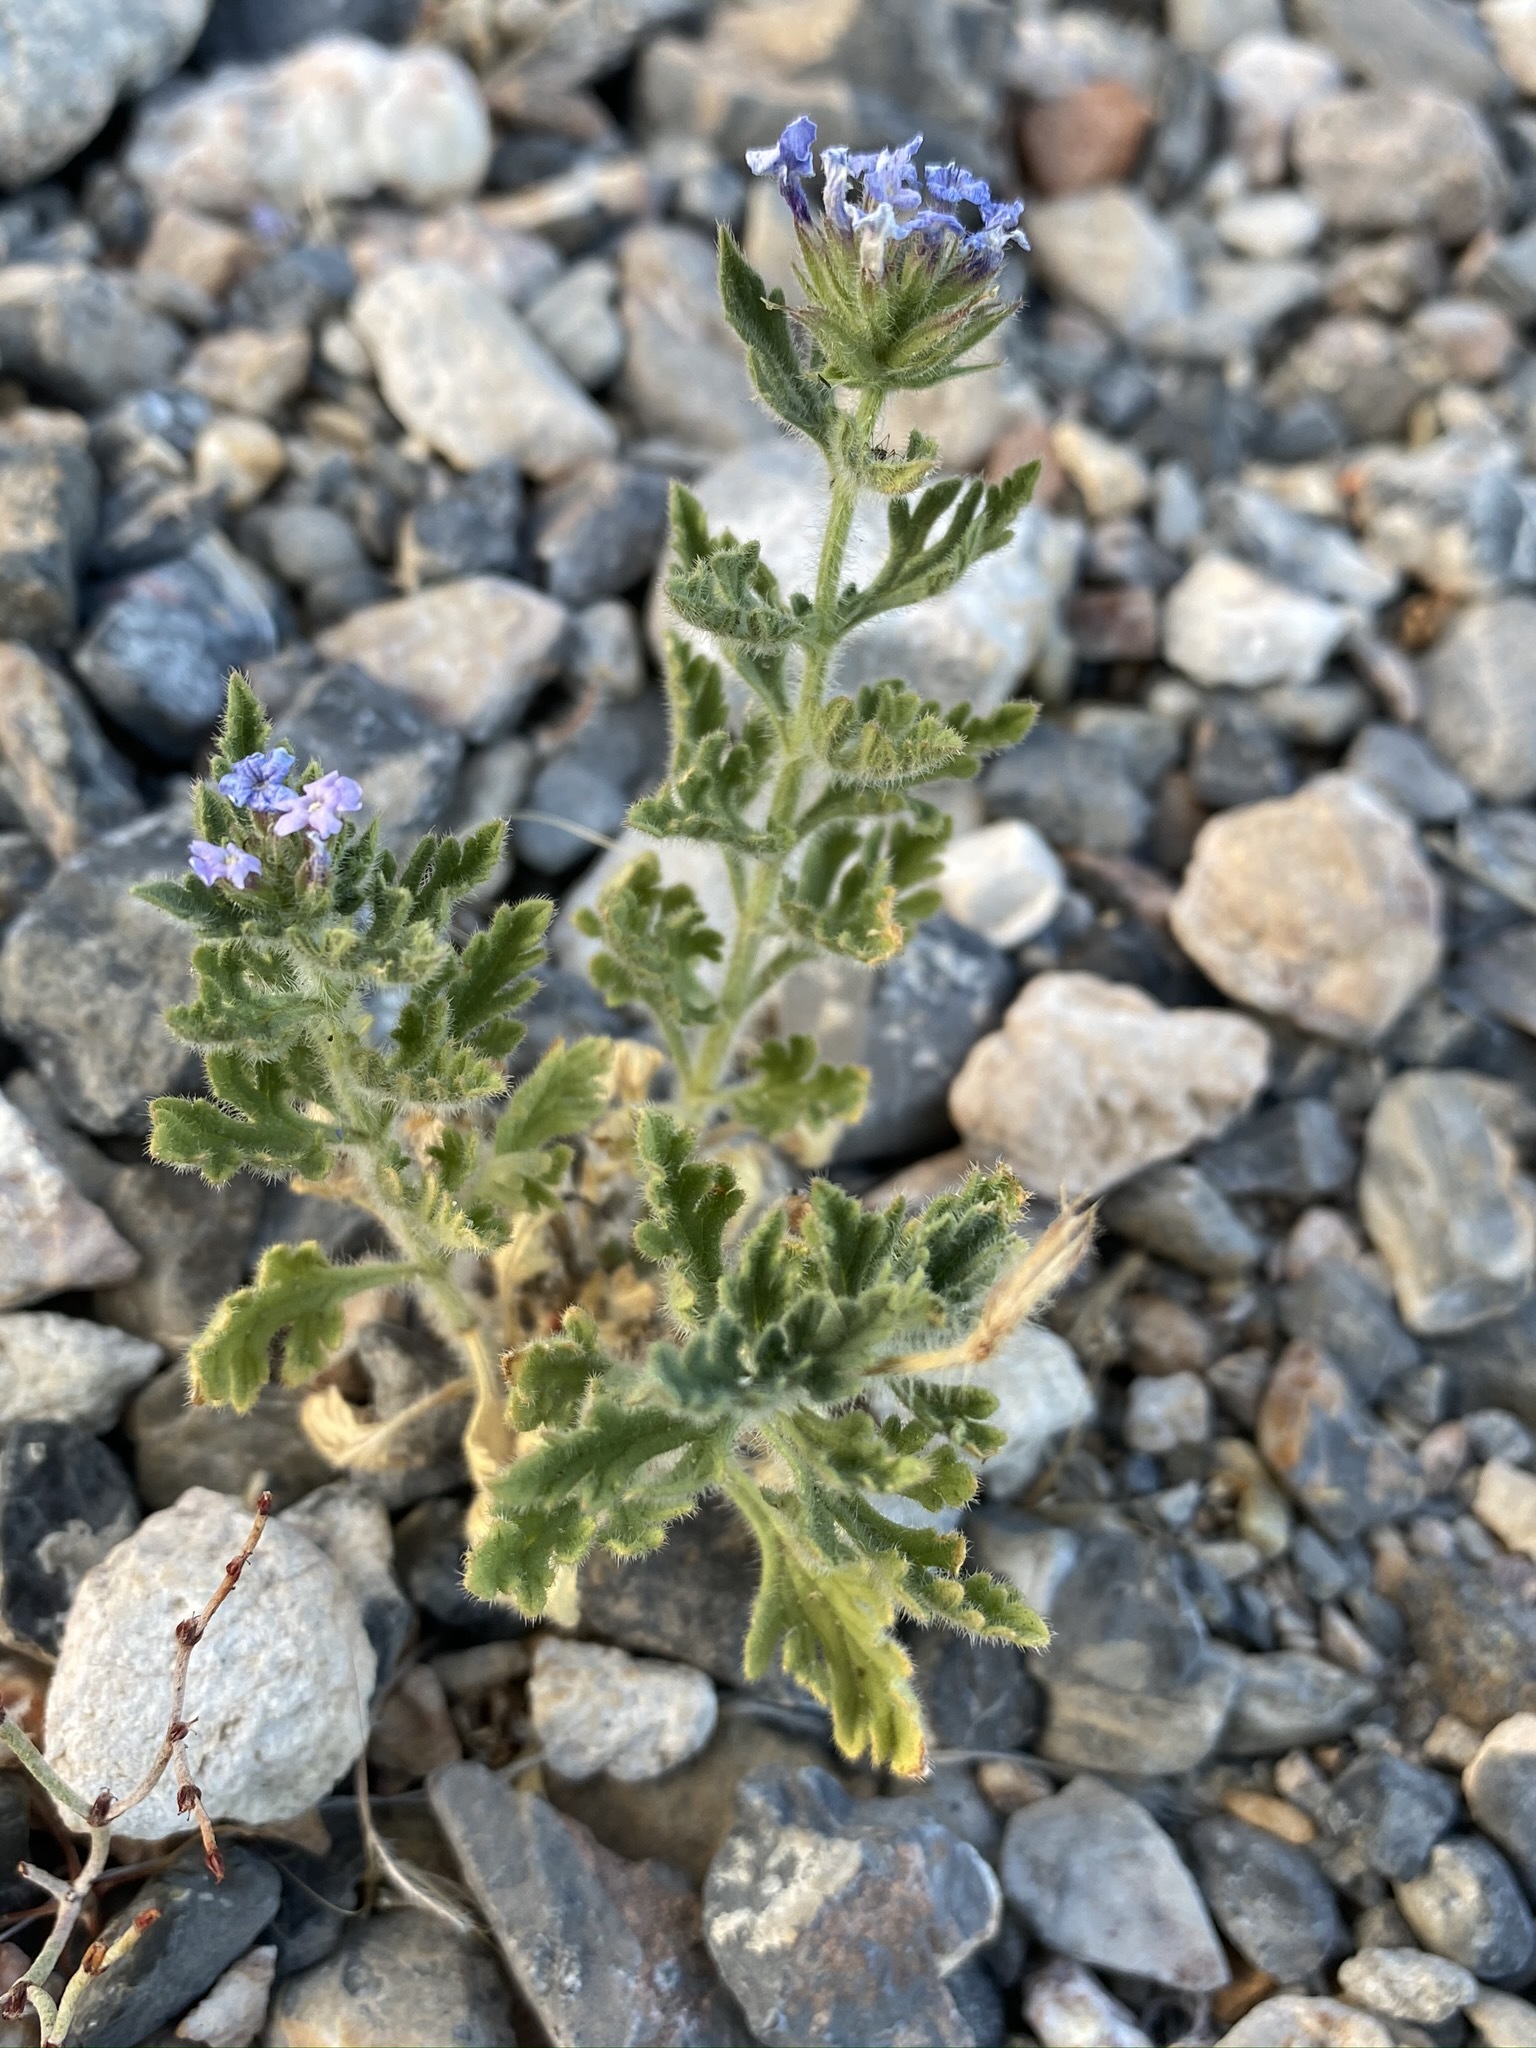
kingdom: Plantae
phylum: Tracheophyta
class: Magnoliopsida
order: Lamiales
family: Verbenaceae
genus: Verbena
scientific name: Verbena gooddingii
